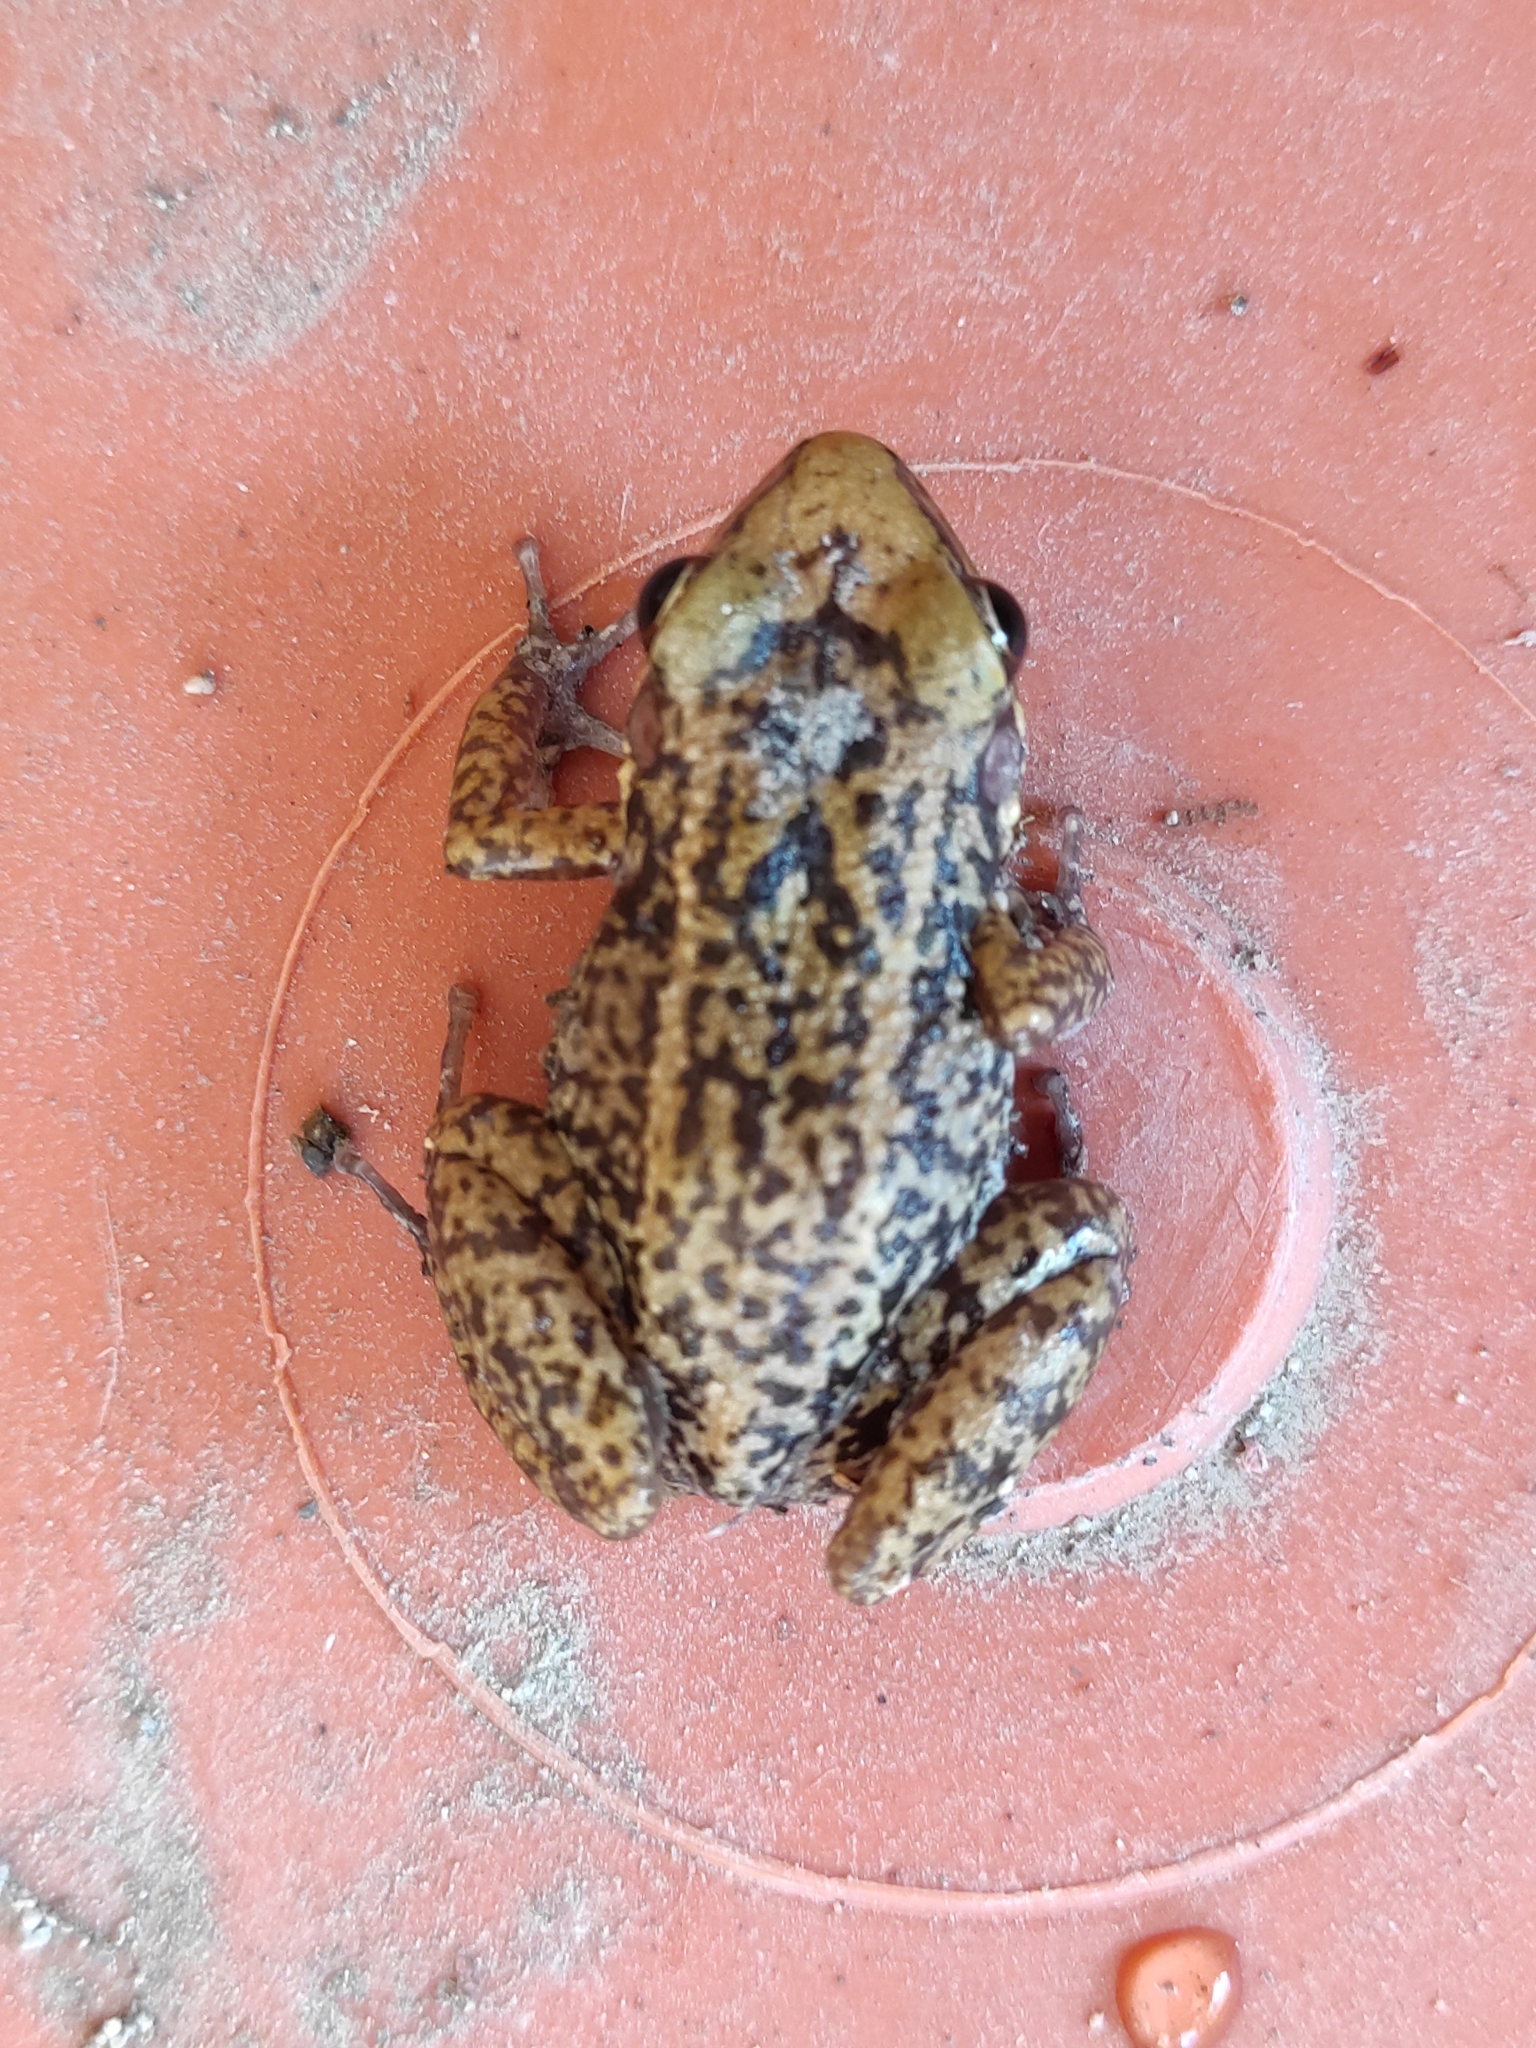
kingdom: Animalia
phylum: Chordata
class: Amphibia
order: Anura
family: Eleutherodactylidae
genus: Eleutherodactylus
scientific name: Eleutherodactylus pictissimus
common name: Hispaniolan yellow-mottled frog
